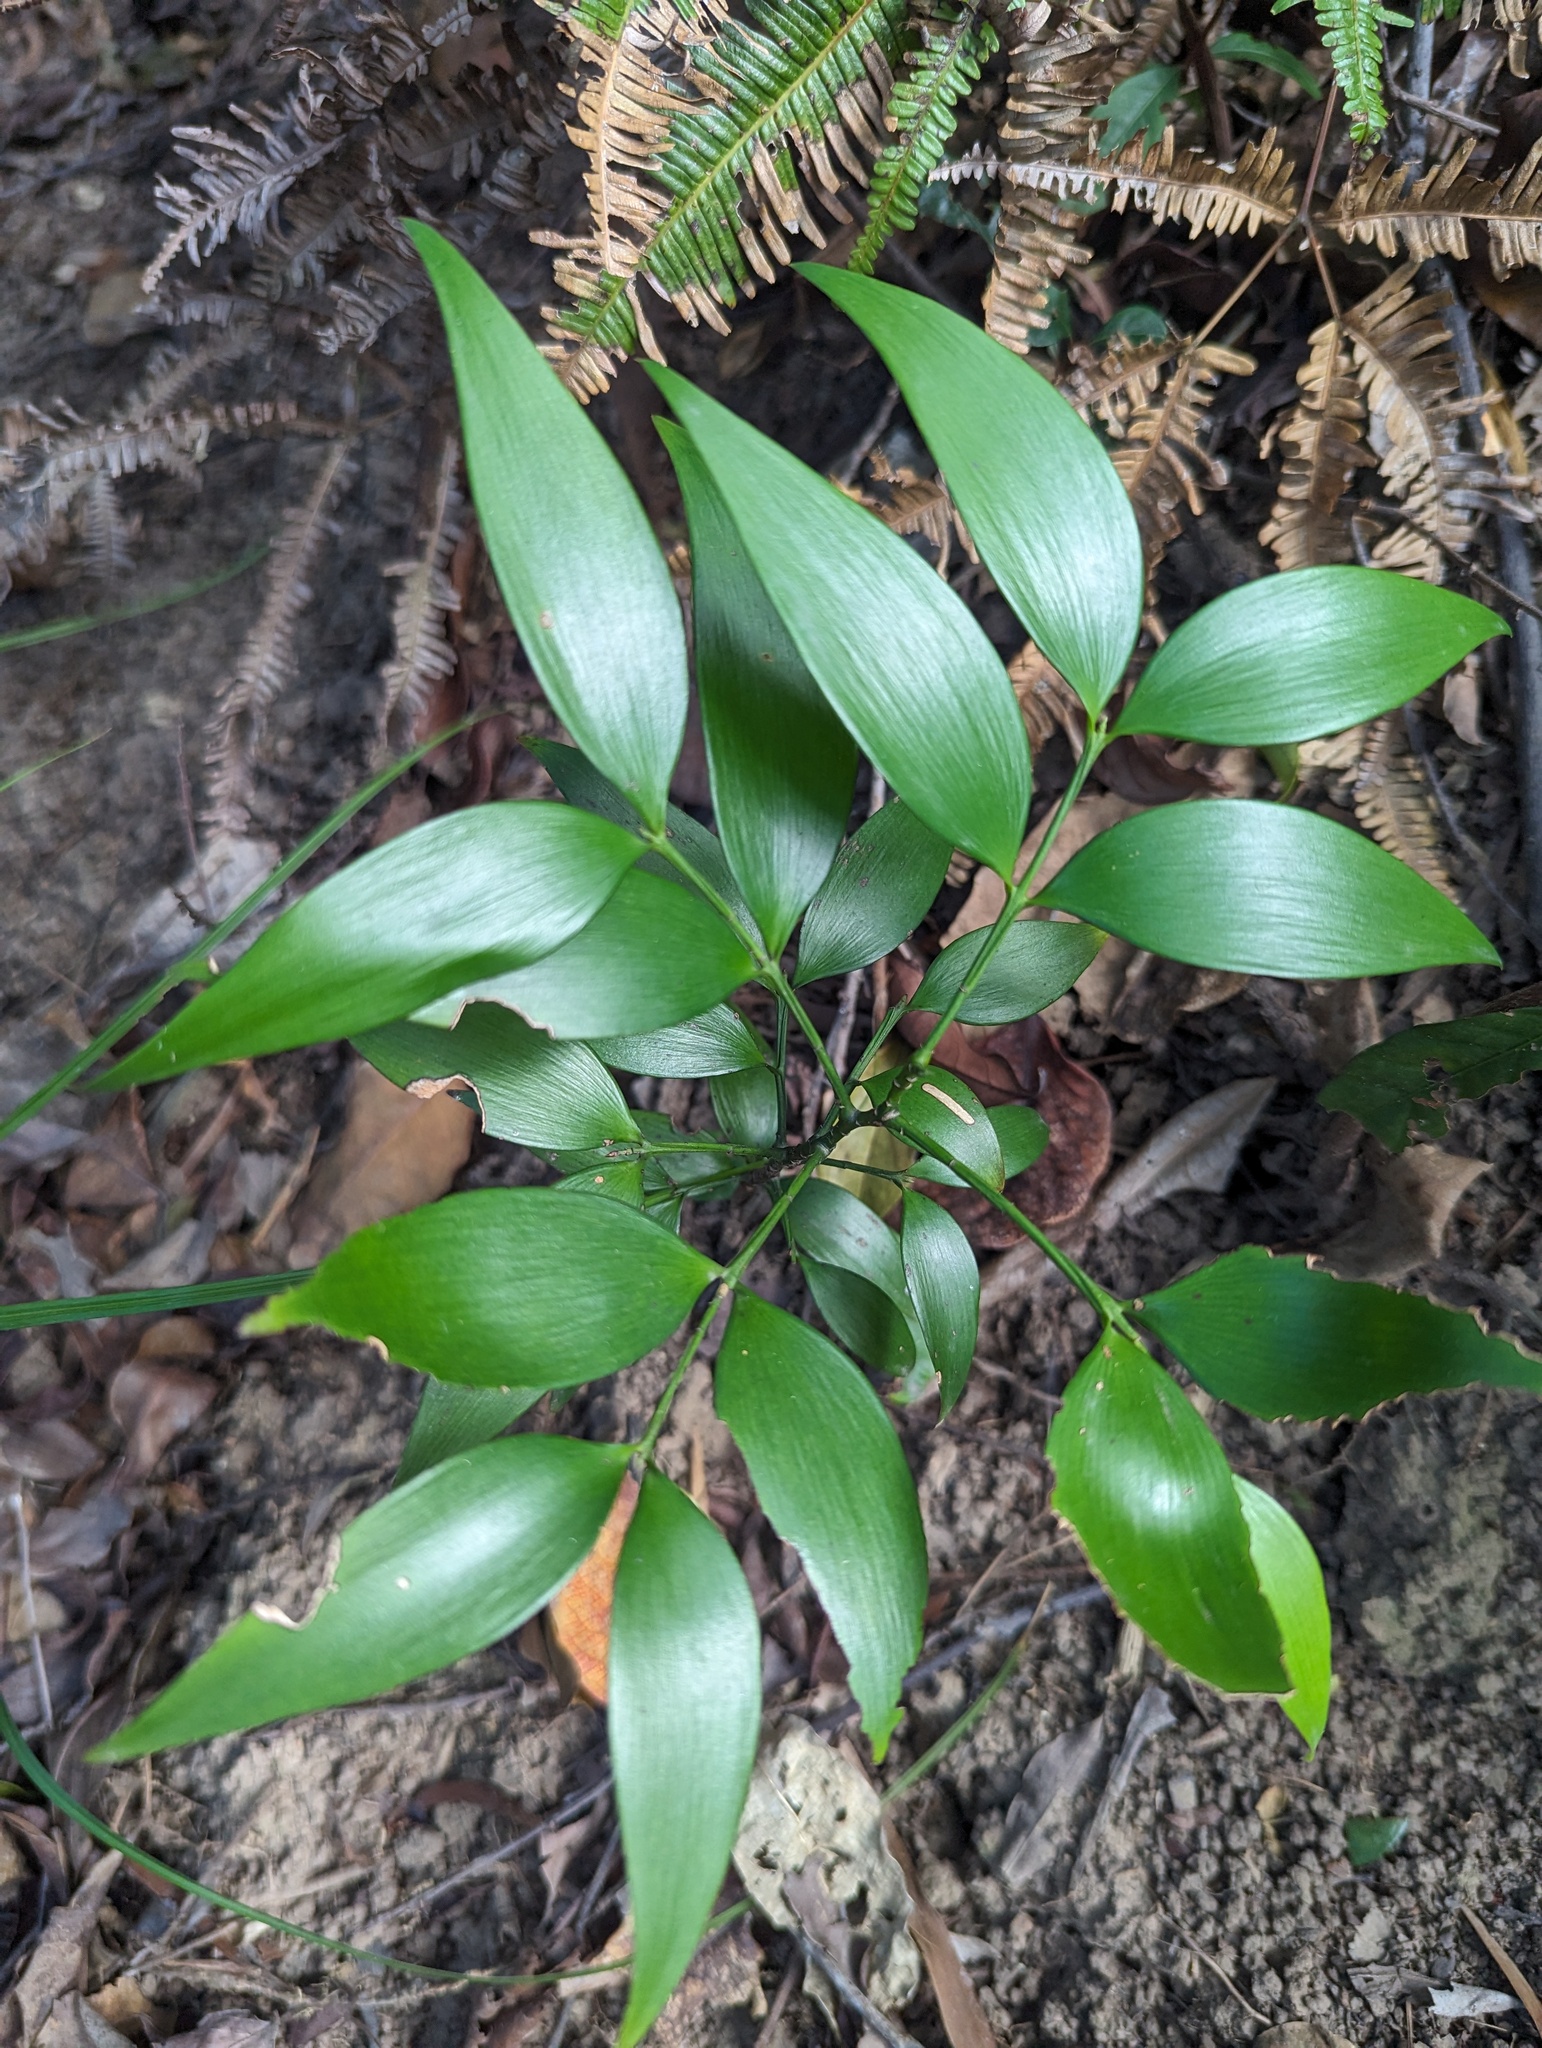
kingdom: Plantae
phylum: Tracheophyta
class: Pinopsida
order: Pinales
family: Podocarpaceae
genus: Nageia
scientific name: Nageia nagi
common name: Kaphal
